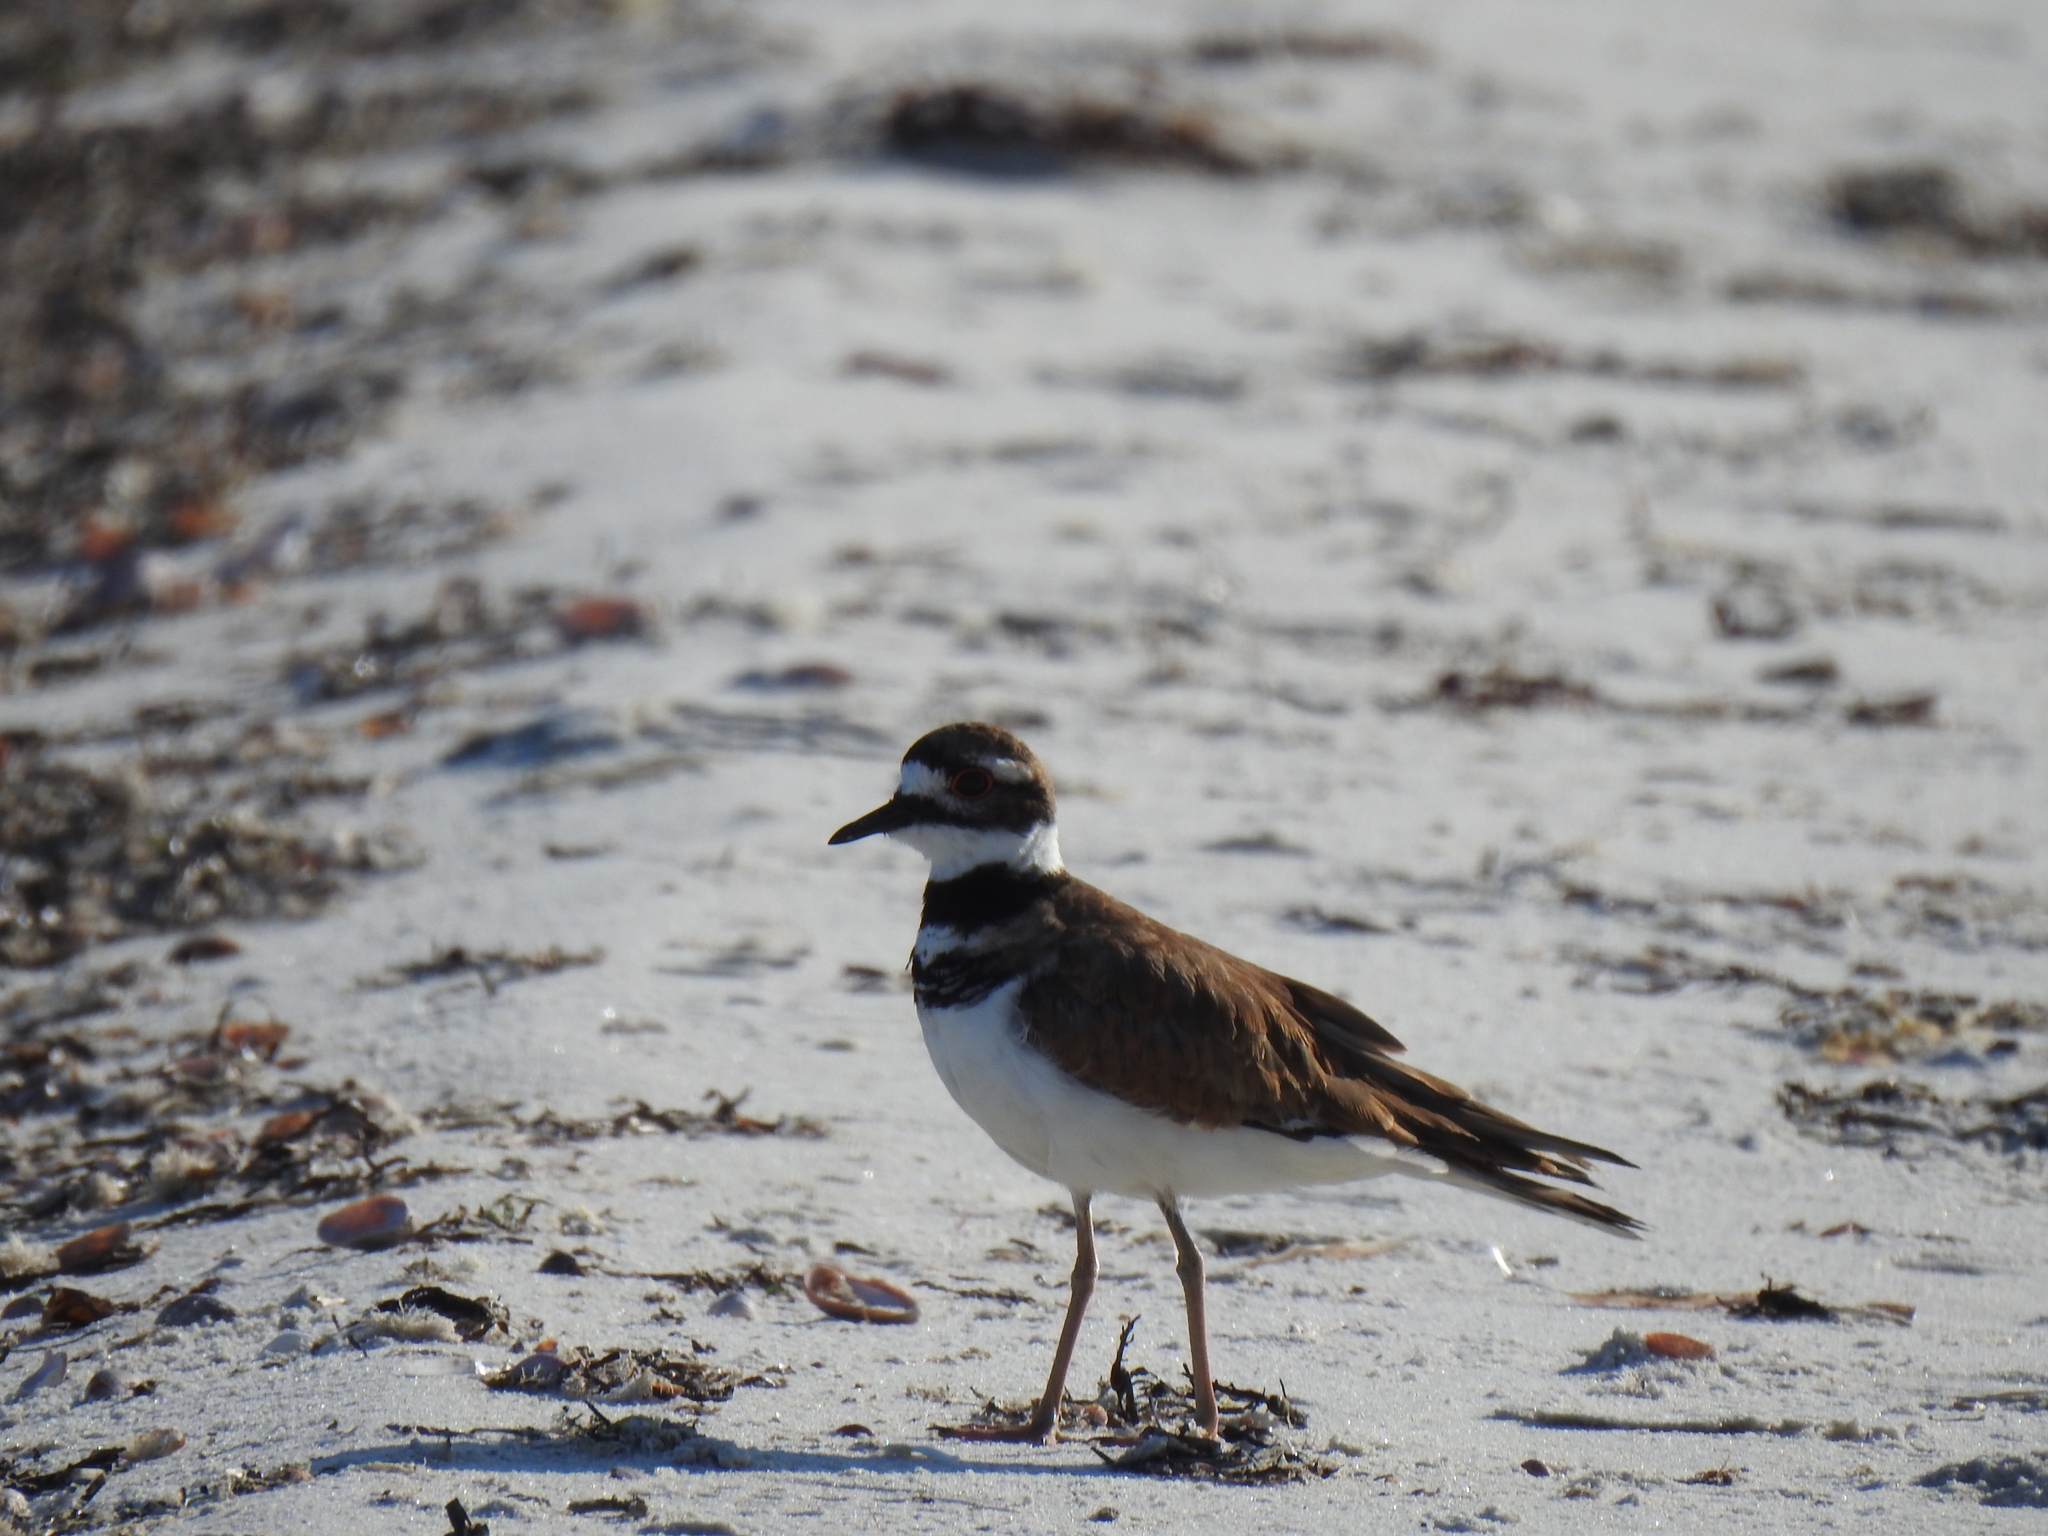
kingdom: Animalia
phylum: Chordata
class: Aves
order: Charadriiformes
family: Charadriidae
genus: Charadrius
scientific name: Charadrius vociferus
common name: Killdeer
